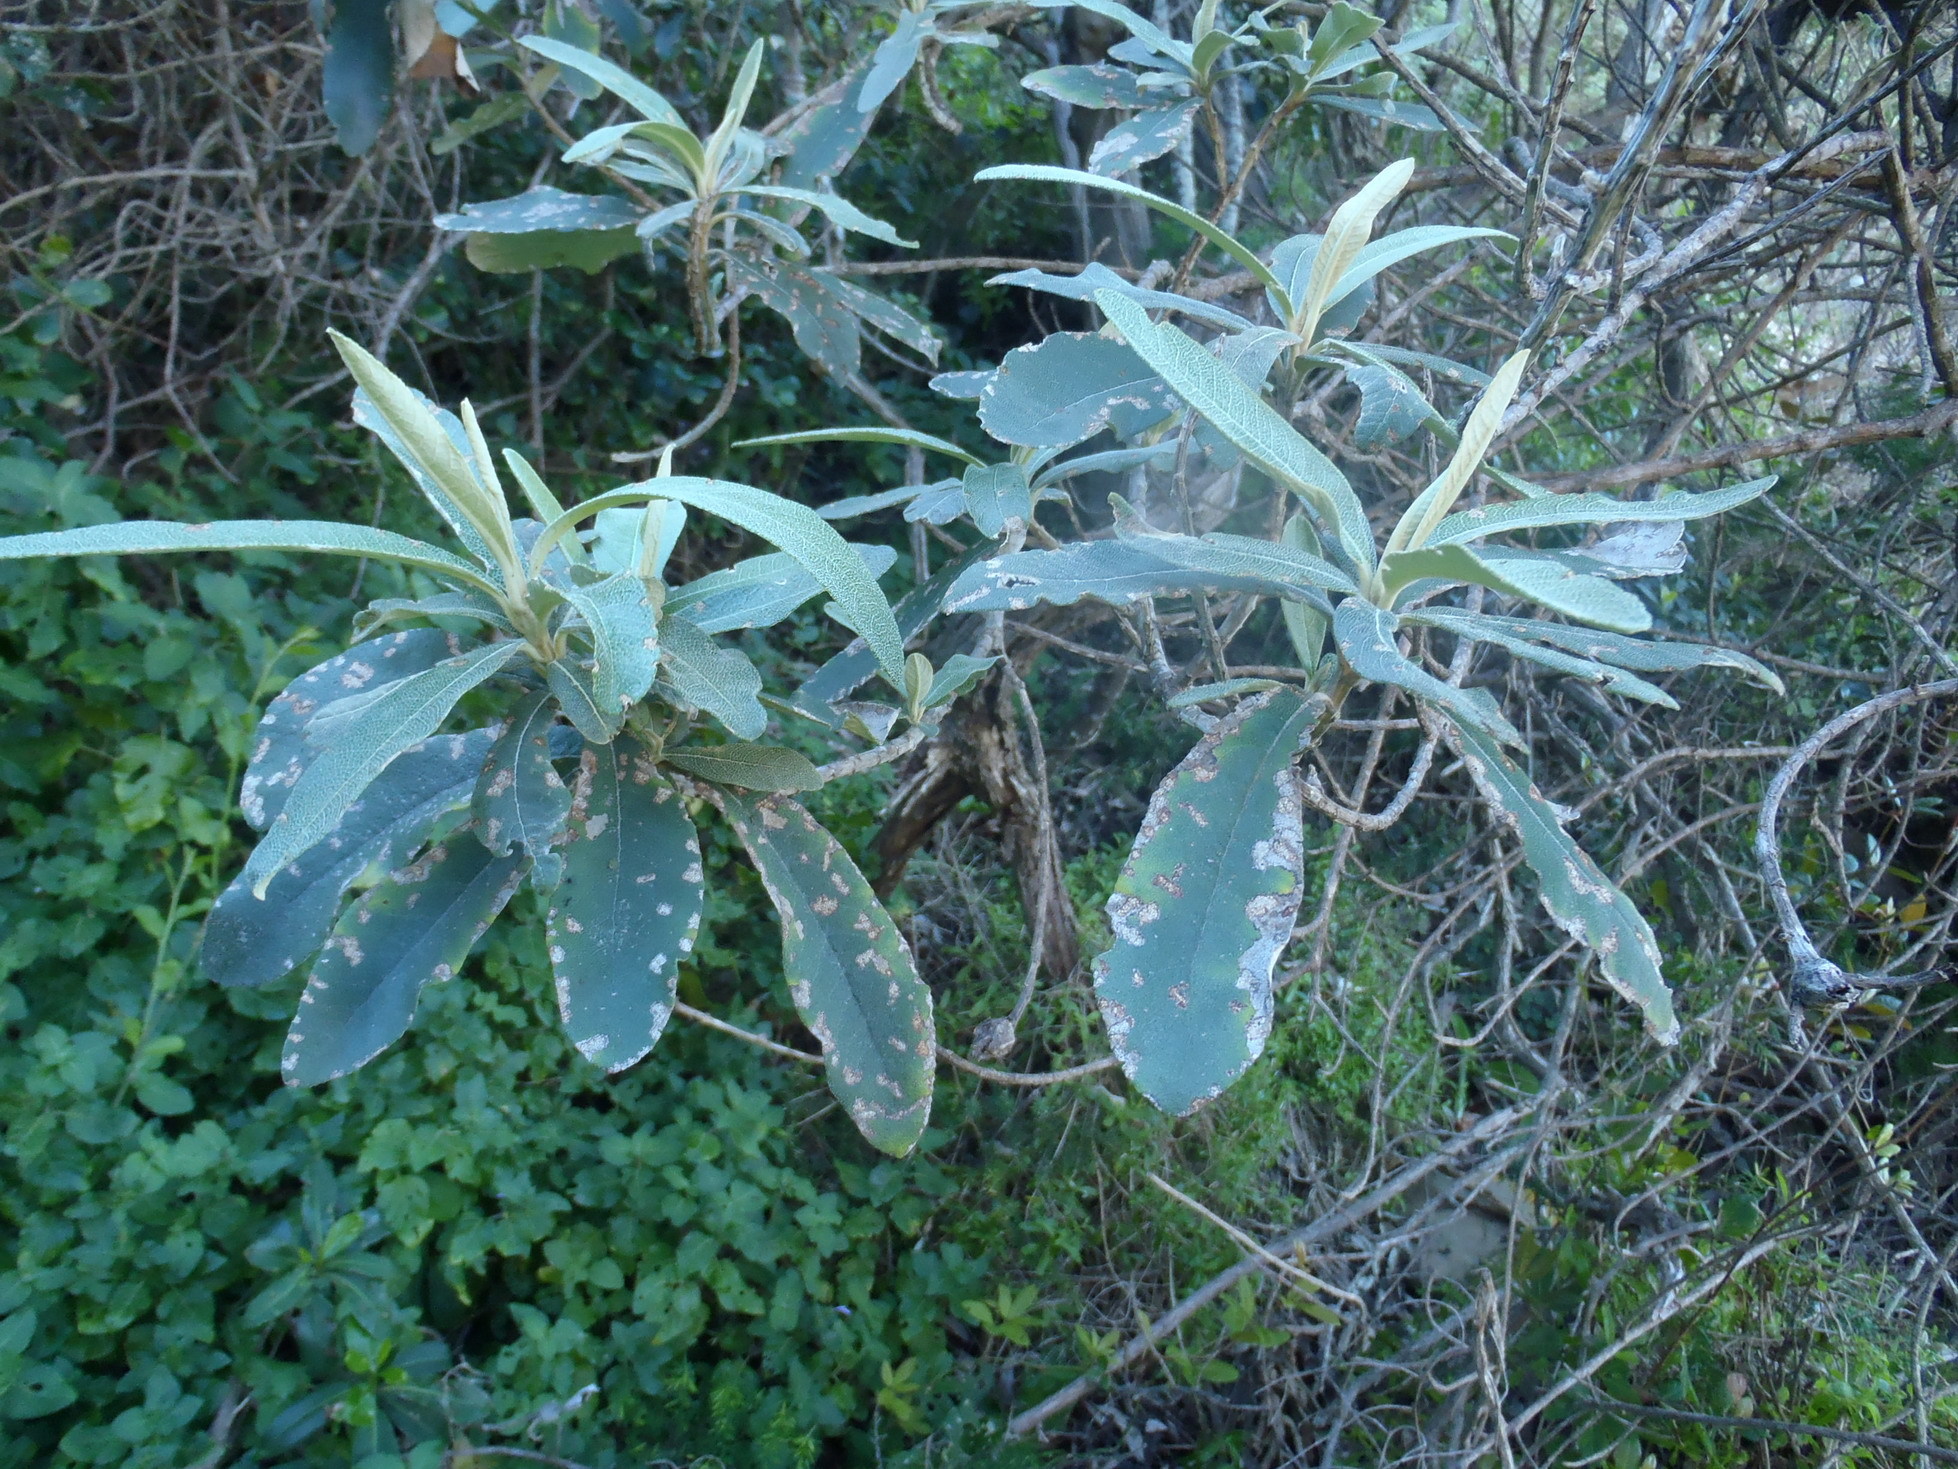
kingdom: Plantae
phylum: Tracheophyta
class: Magnoliopsida
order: Asterales
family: Asteraceae
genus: Tarchonanthus
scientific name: Tarchonanthus littoralis
